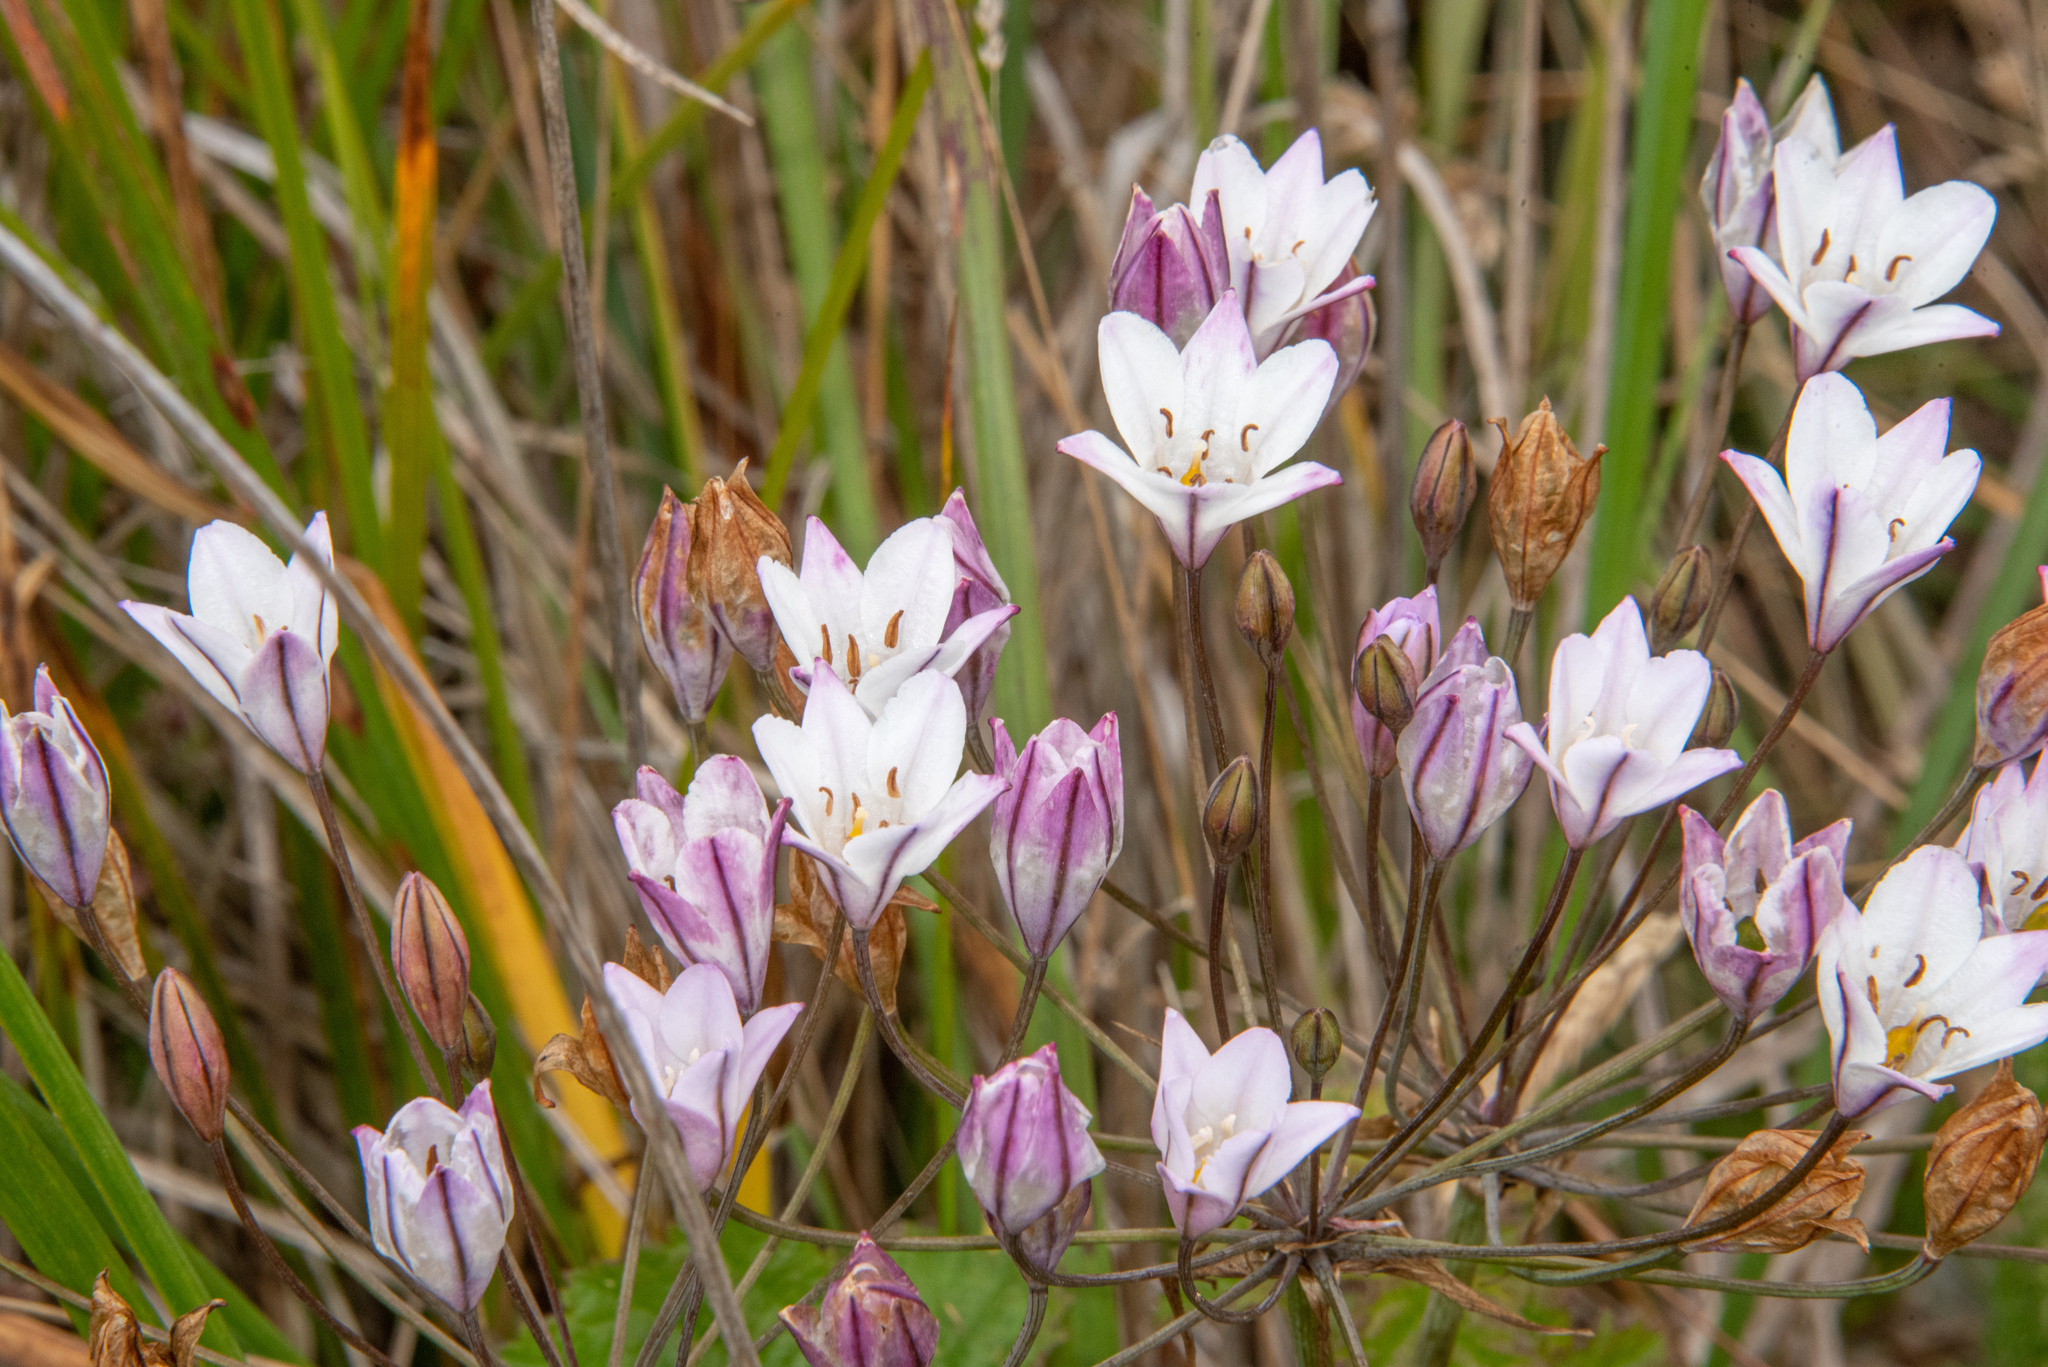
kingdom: Plantae
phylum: Tracheophyta
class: Liliopsida
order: Asparagales
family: Asparagaceae
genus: Triteleia
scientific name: Triteleia peduncularis
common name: Long-ray brodiaea
